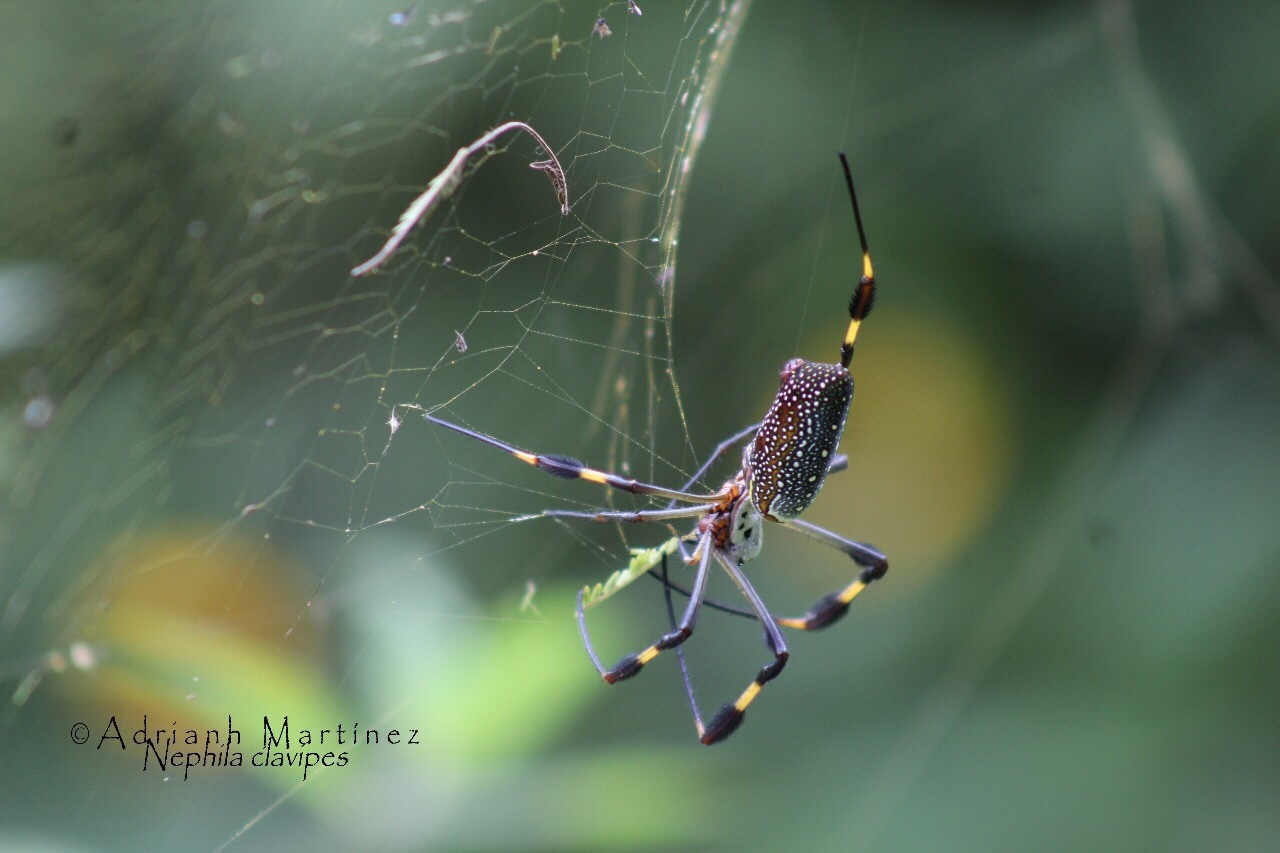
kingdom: Animalia
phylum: Arthropoda
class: Arachnida
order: Araneae
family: Araneidae
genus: Trichonephila
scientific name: Trichonephila clavipes
